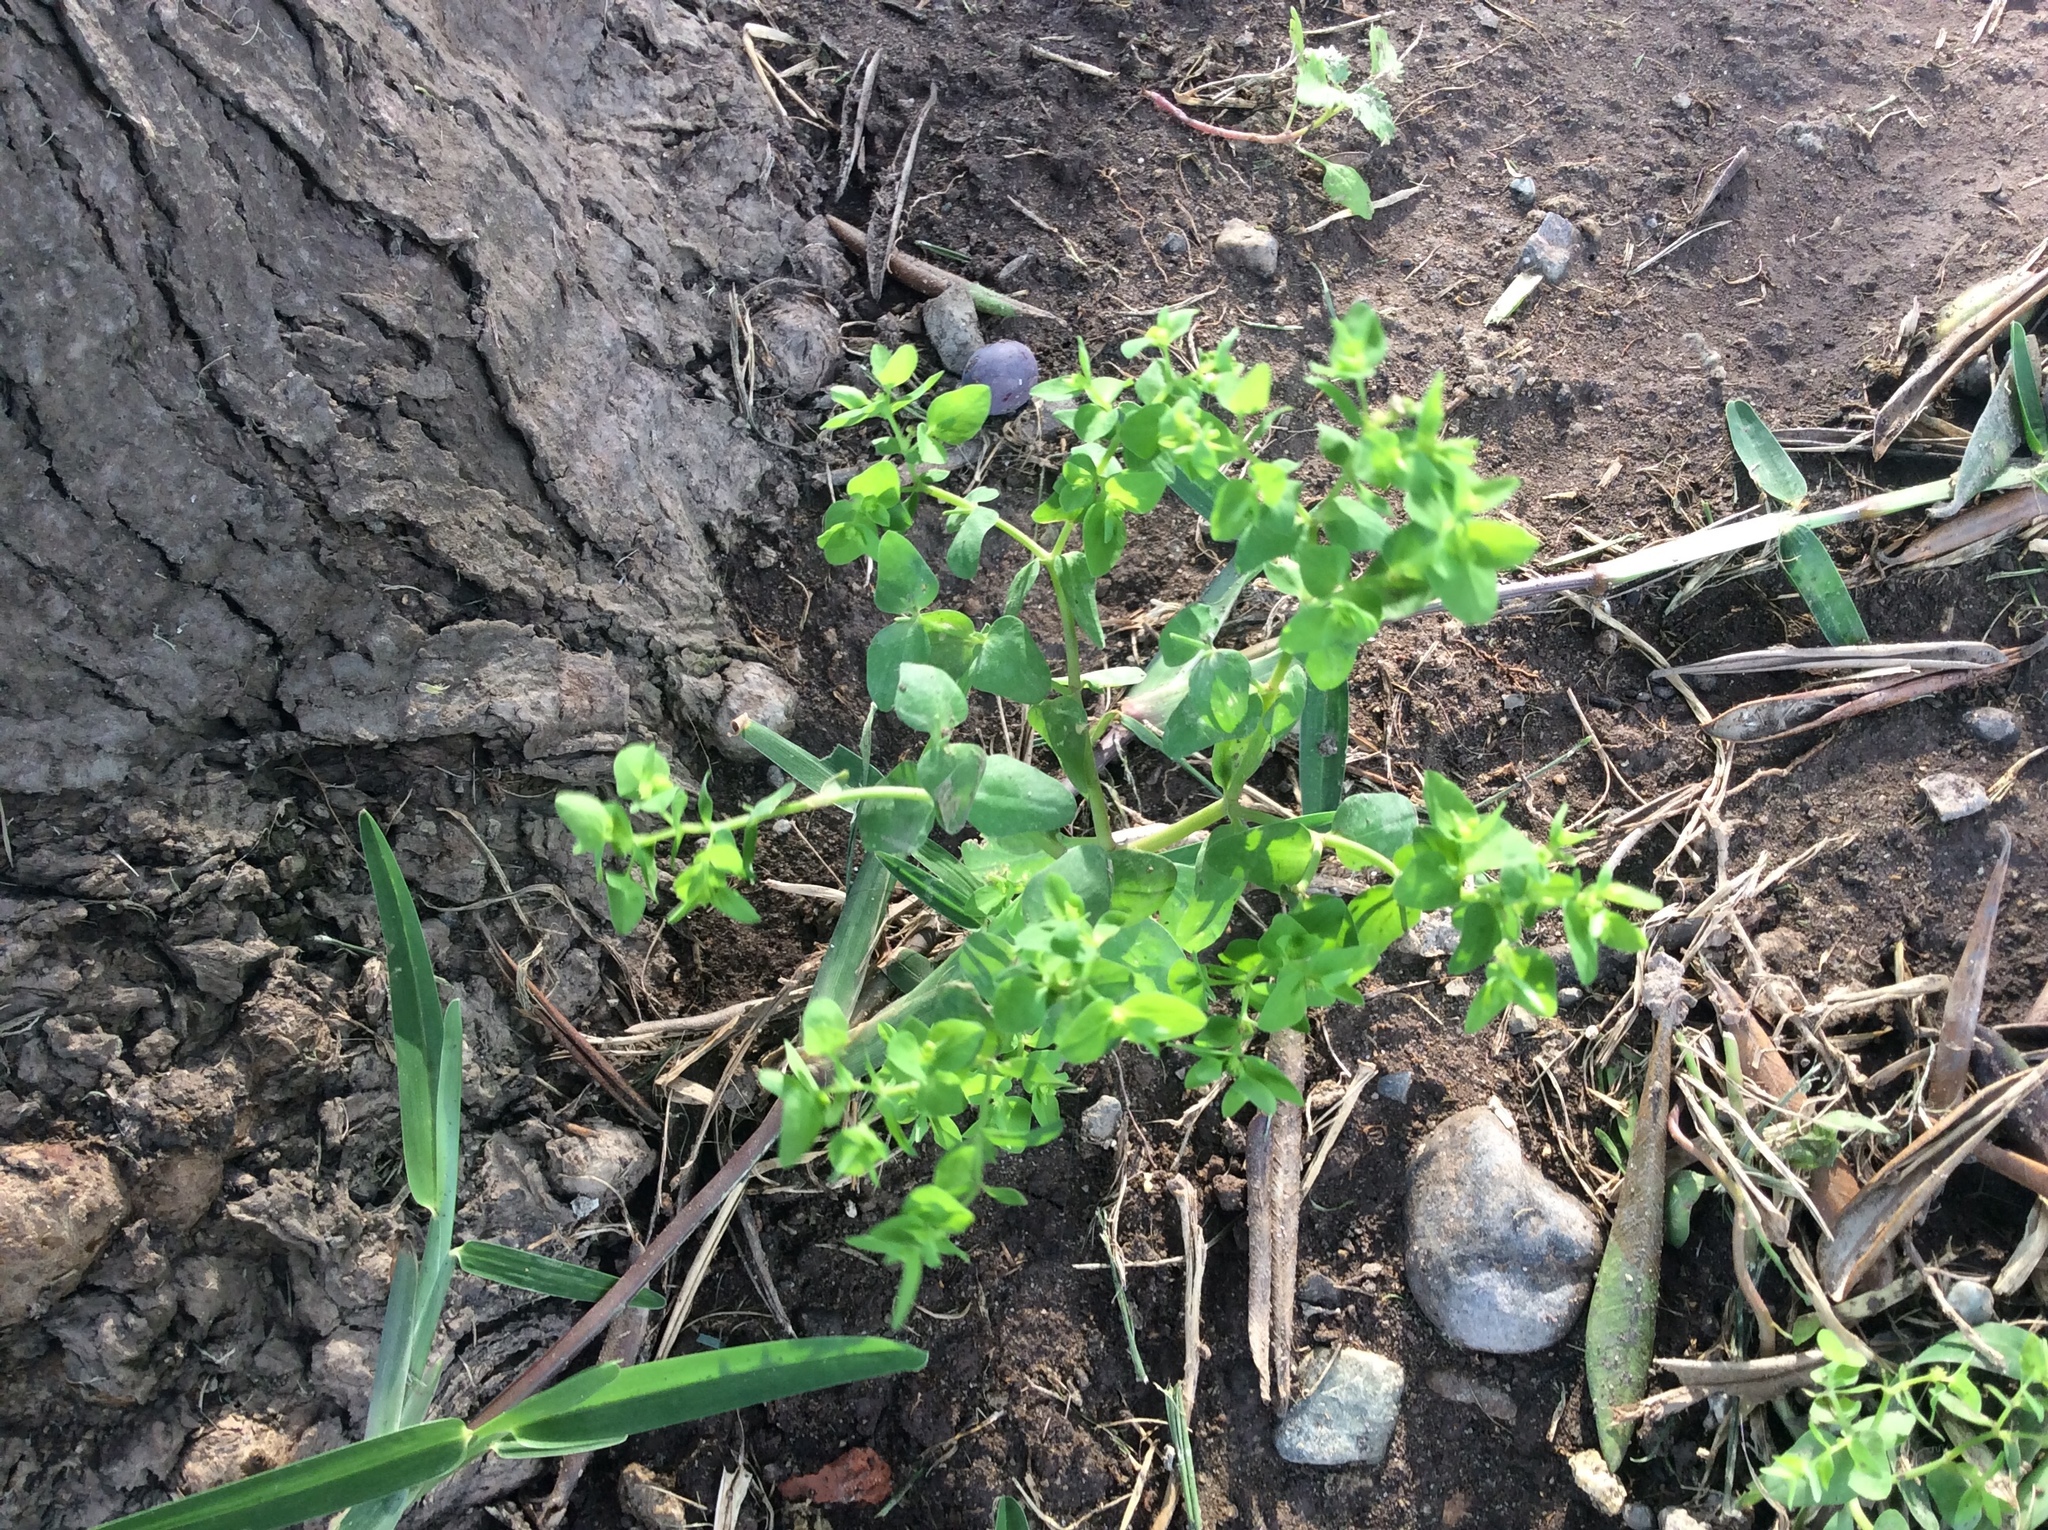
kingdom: Plantae
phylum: Tracheophyta
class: Magnoliopsida
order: Malpighiales
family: Euphorbiaceae
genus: Euphorbia
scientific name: Euphorbia peplus
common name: Petty spurge
